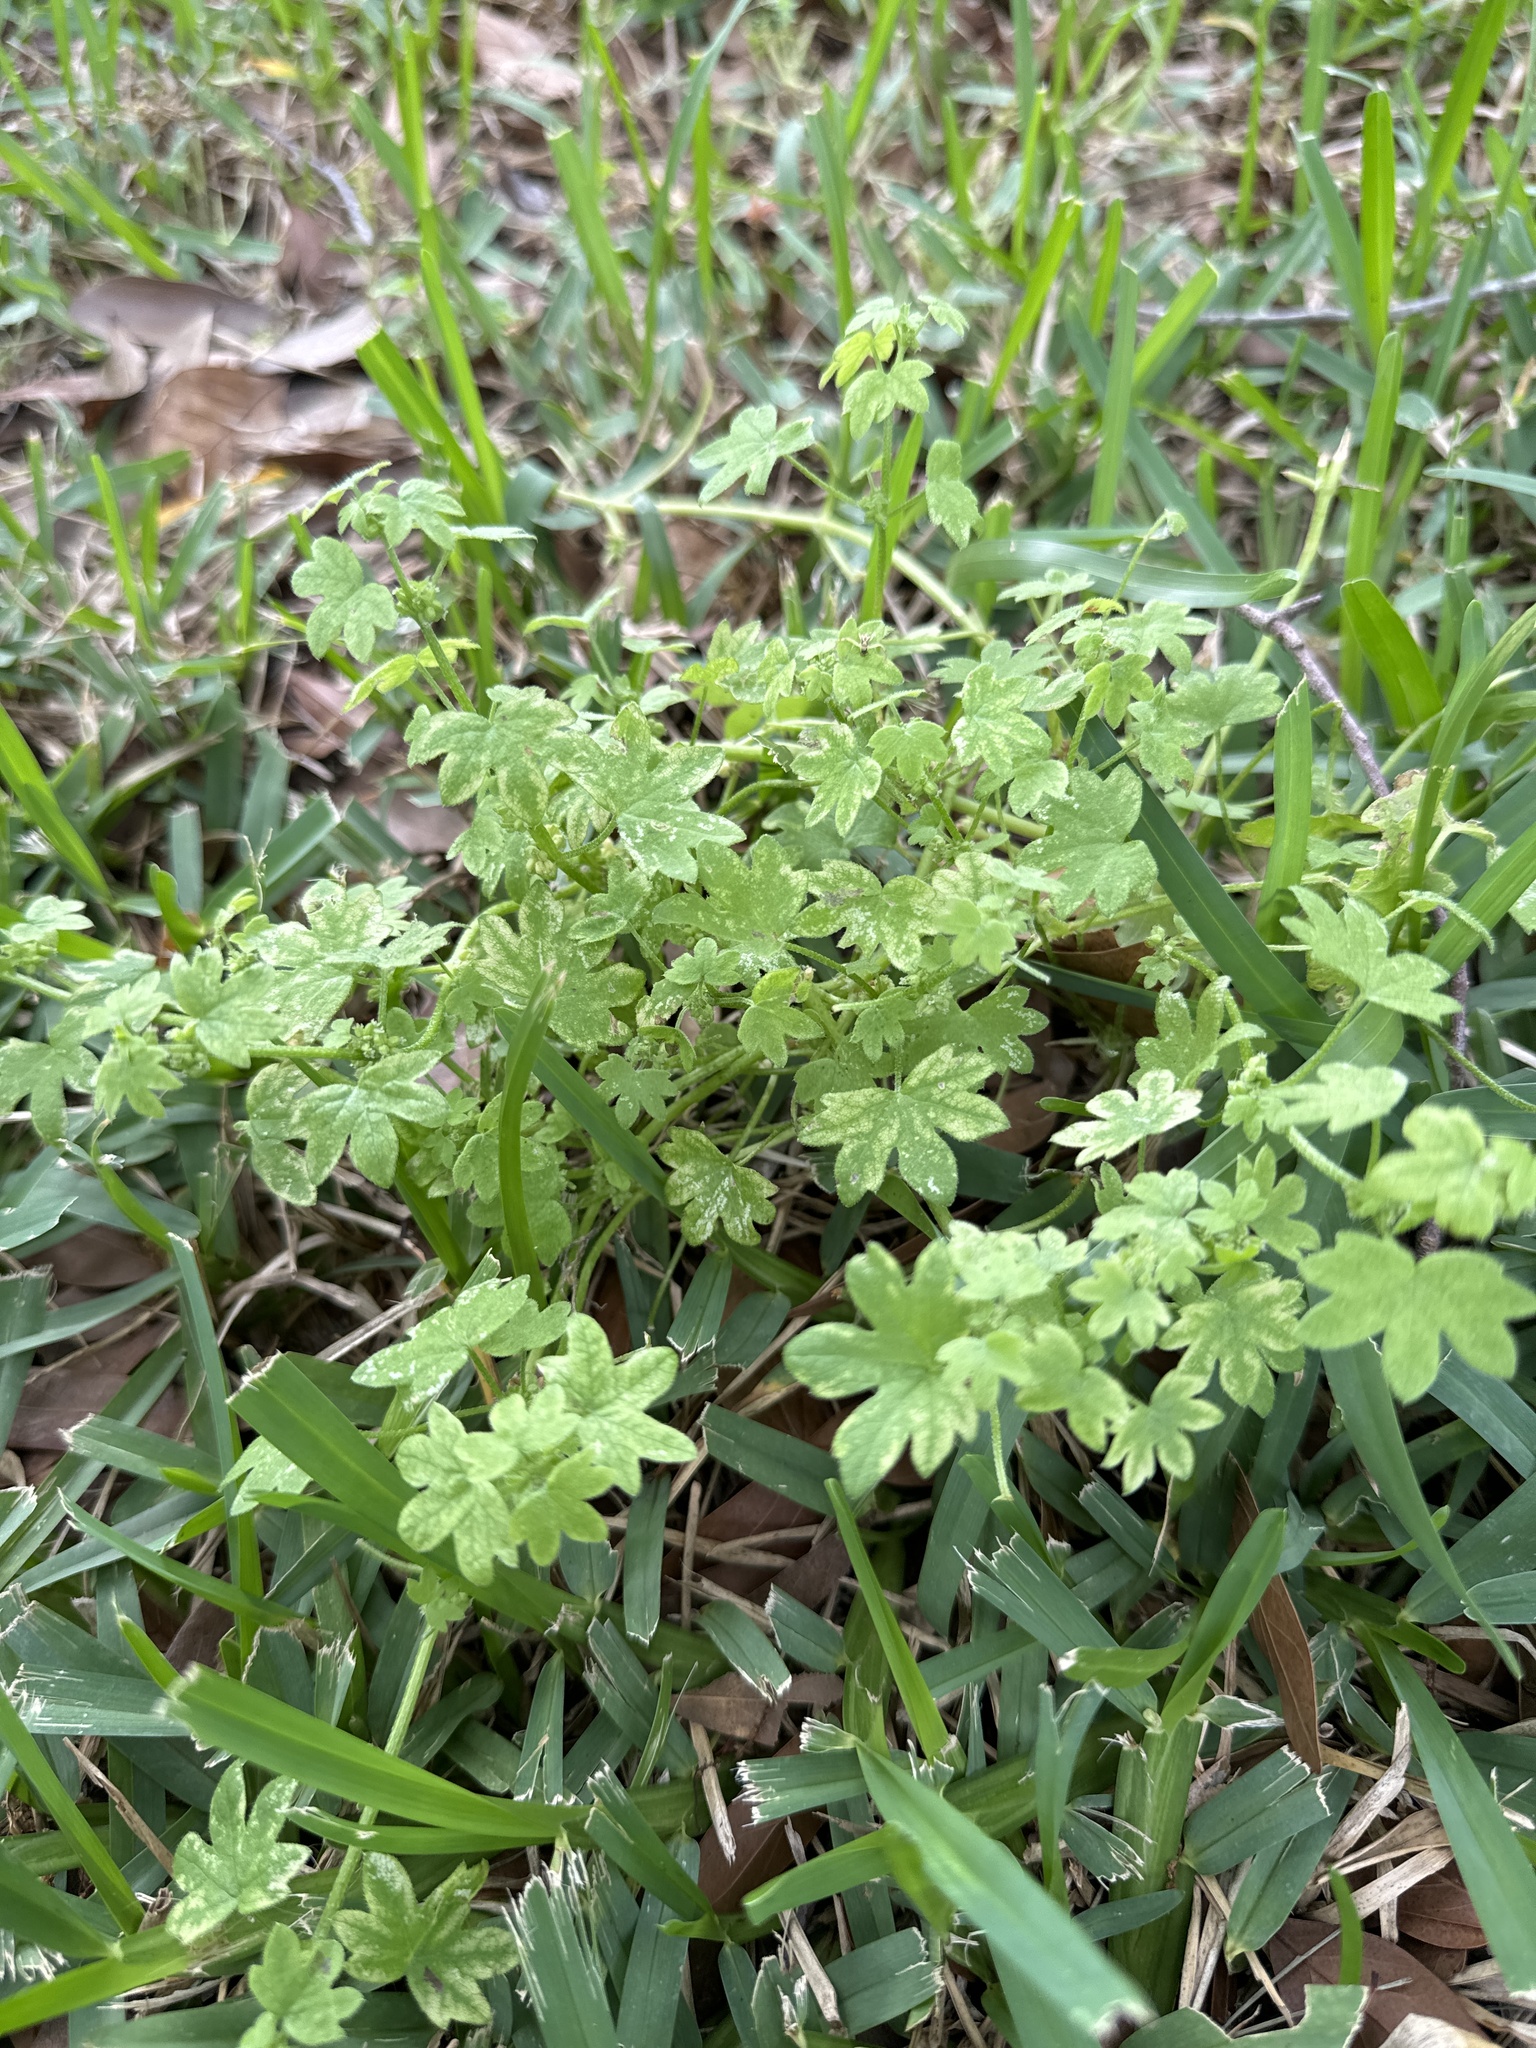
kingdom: Plantae
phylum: Tracheophyta
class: Magnoliopsida
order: Apiales
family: Apiaceae
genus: Bowlesia
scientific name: Bowlesia incana
